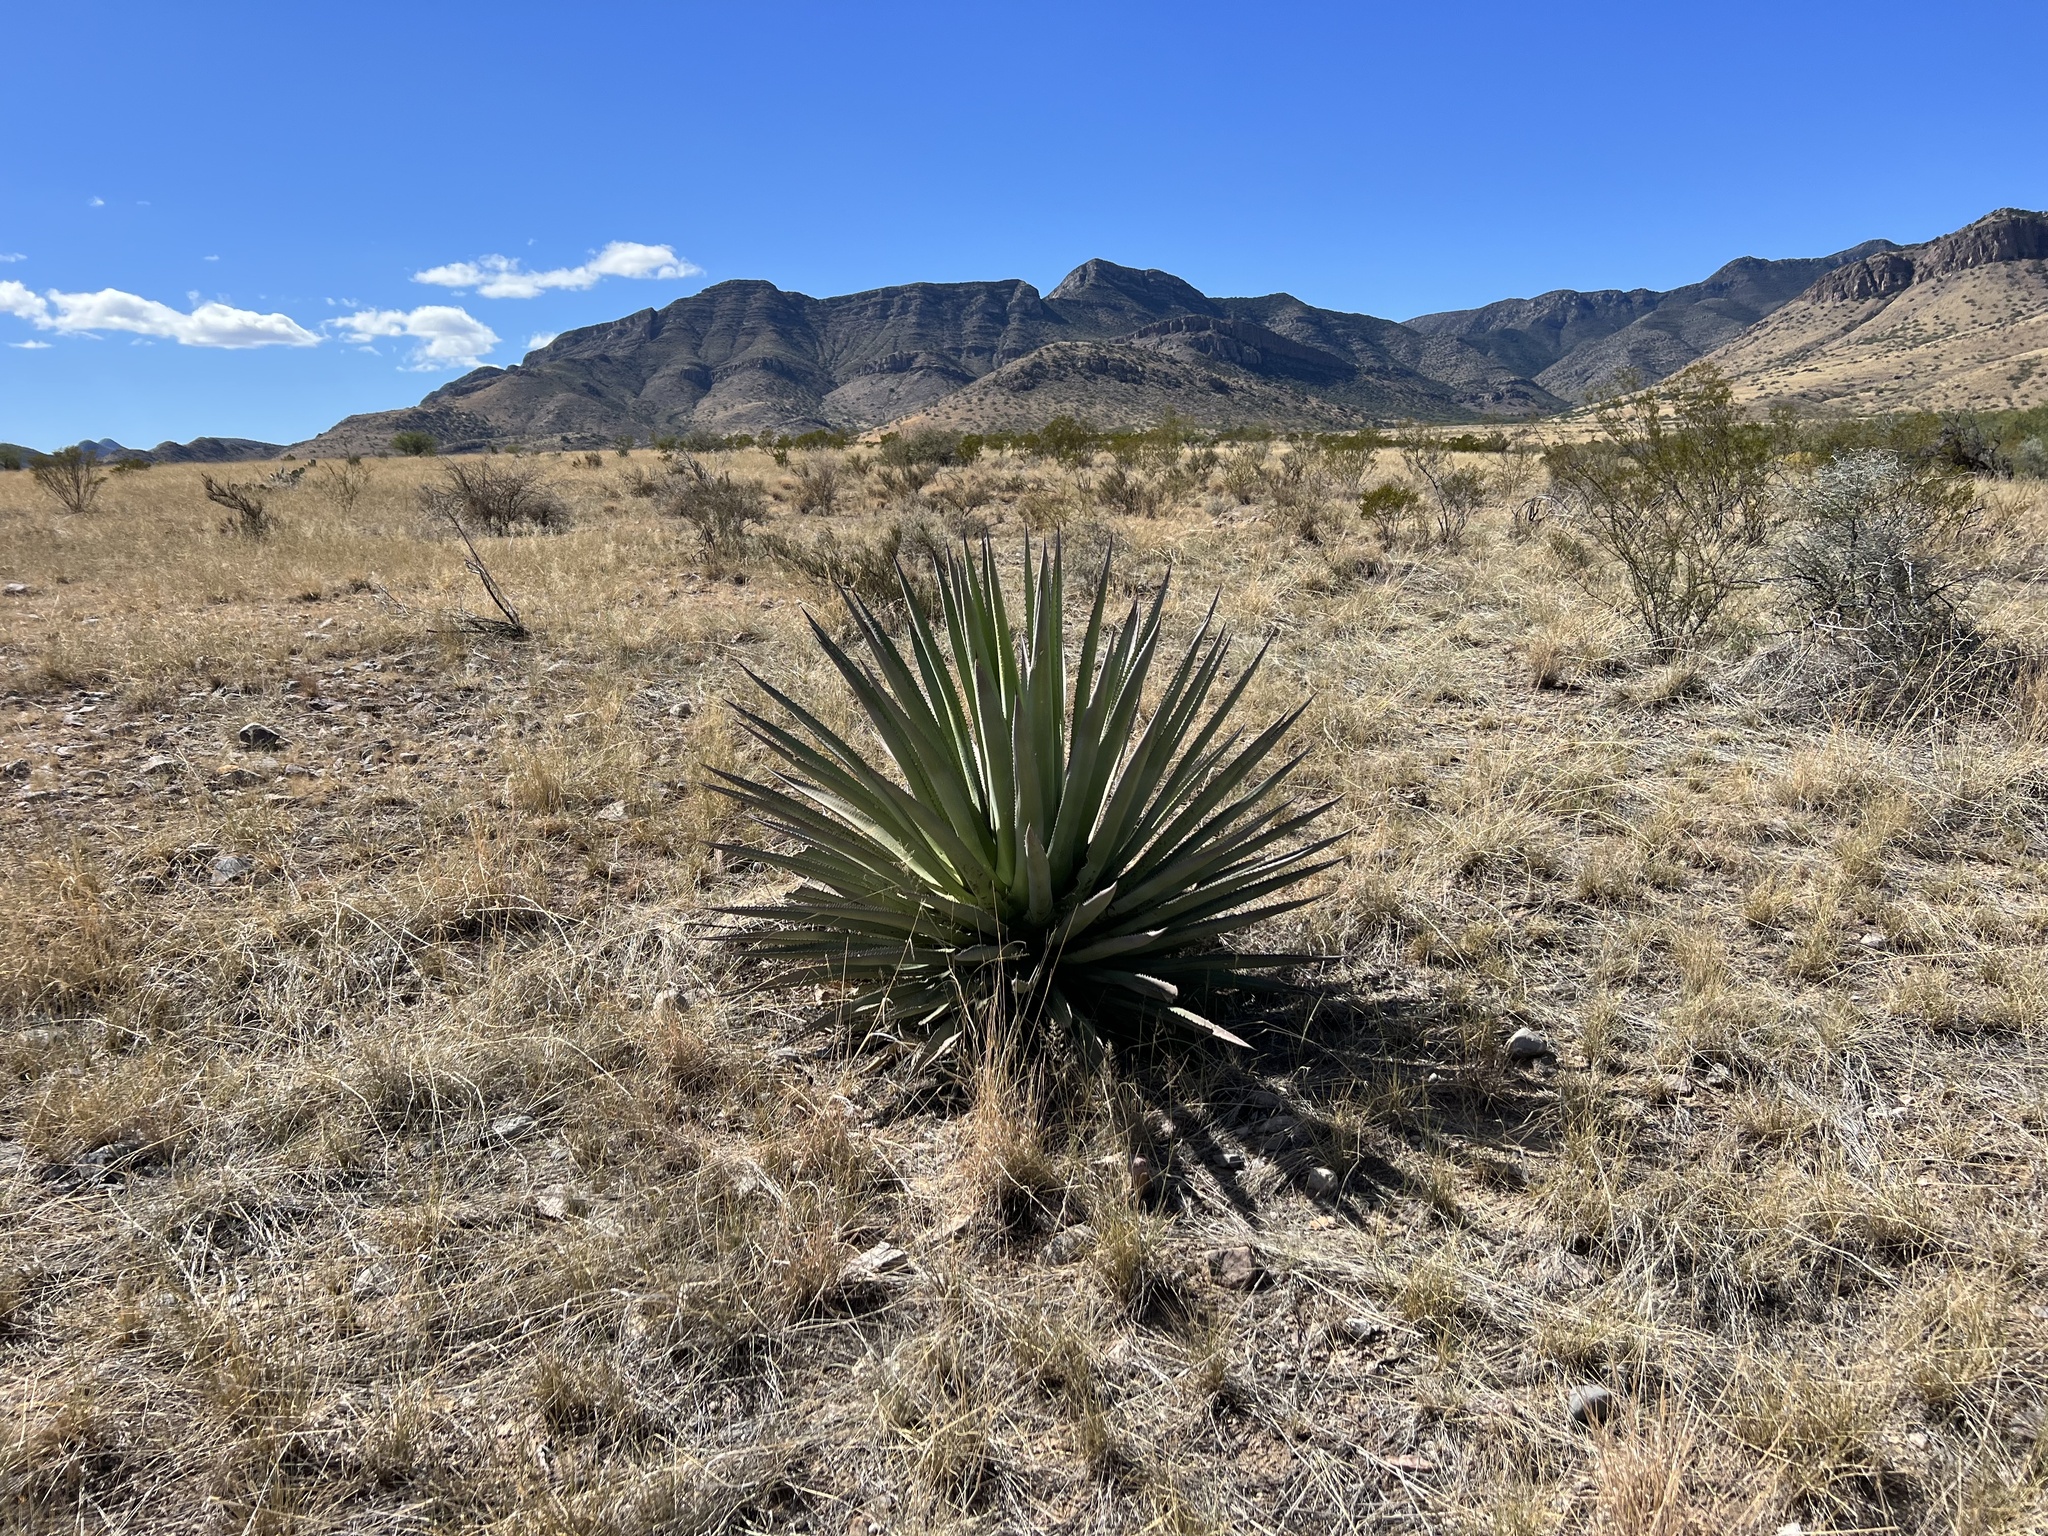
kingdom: Plantae
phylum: Tracheophyta
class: Liliopsida
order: Asparagales
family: Asparagaceae
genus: Agave
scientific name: Agave palmeri
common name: Palmer agave
